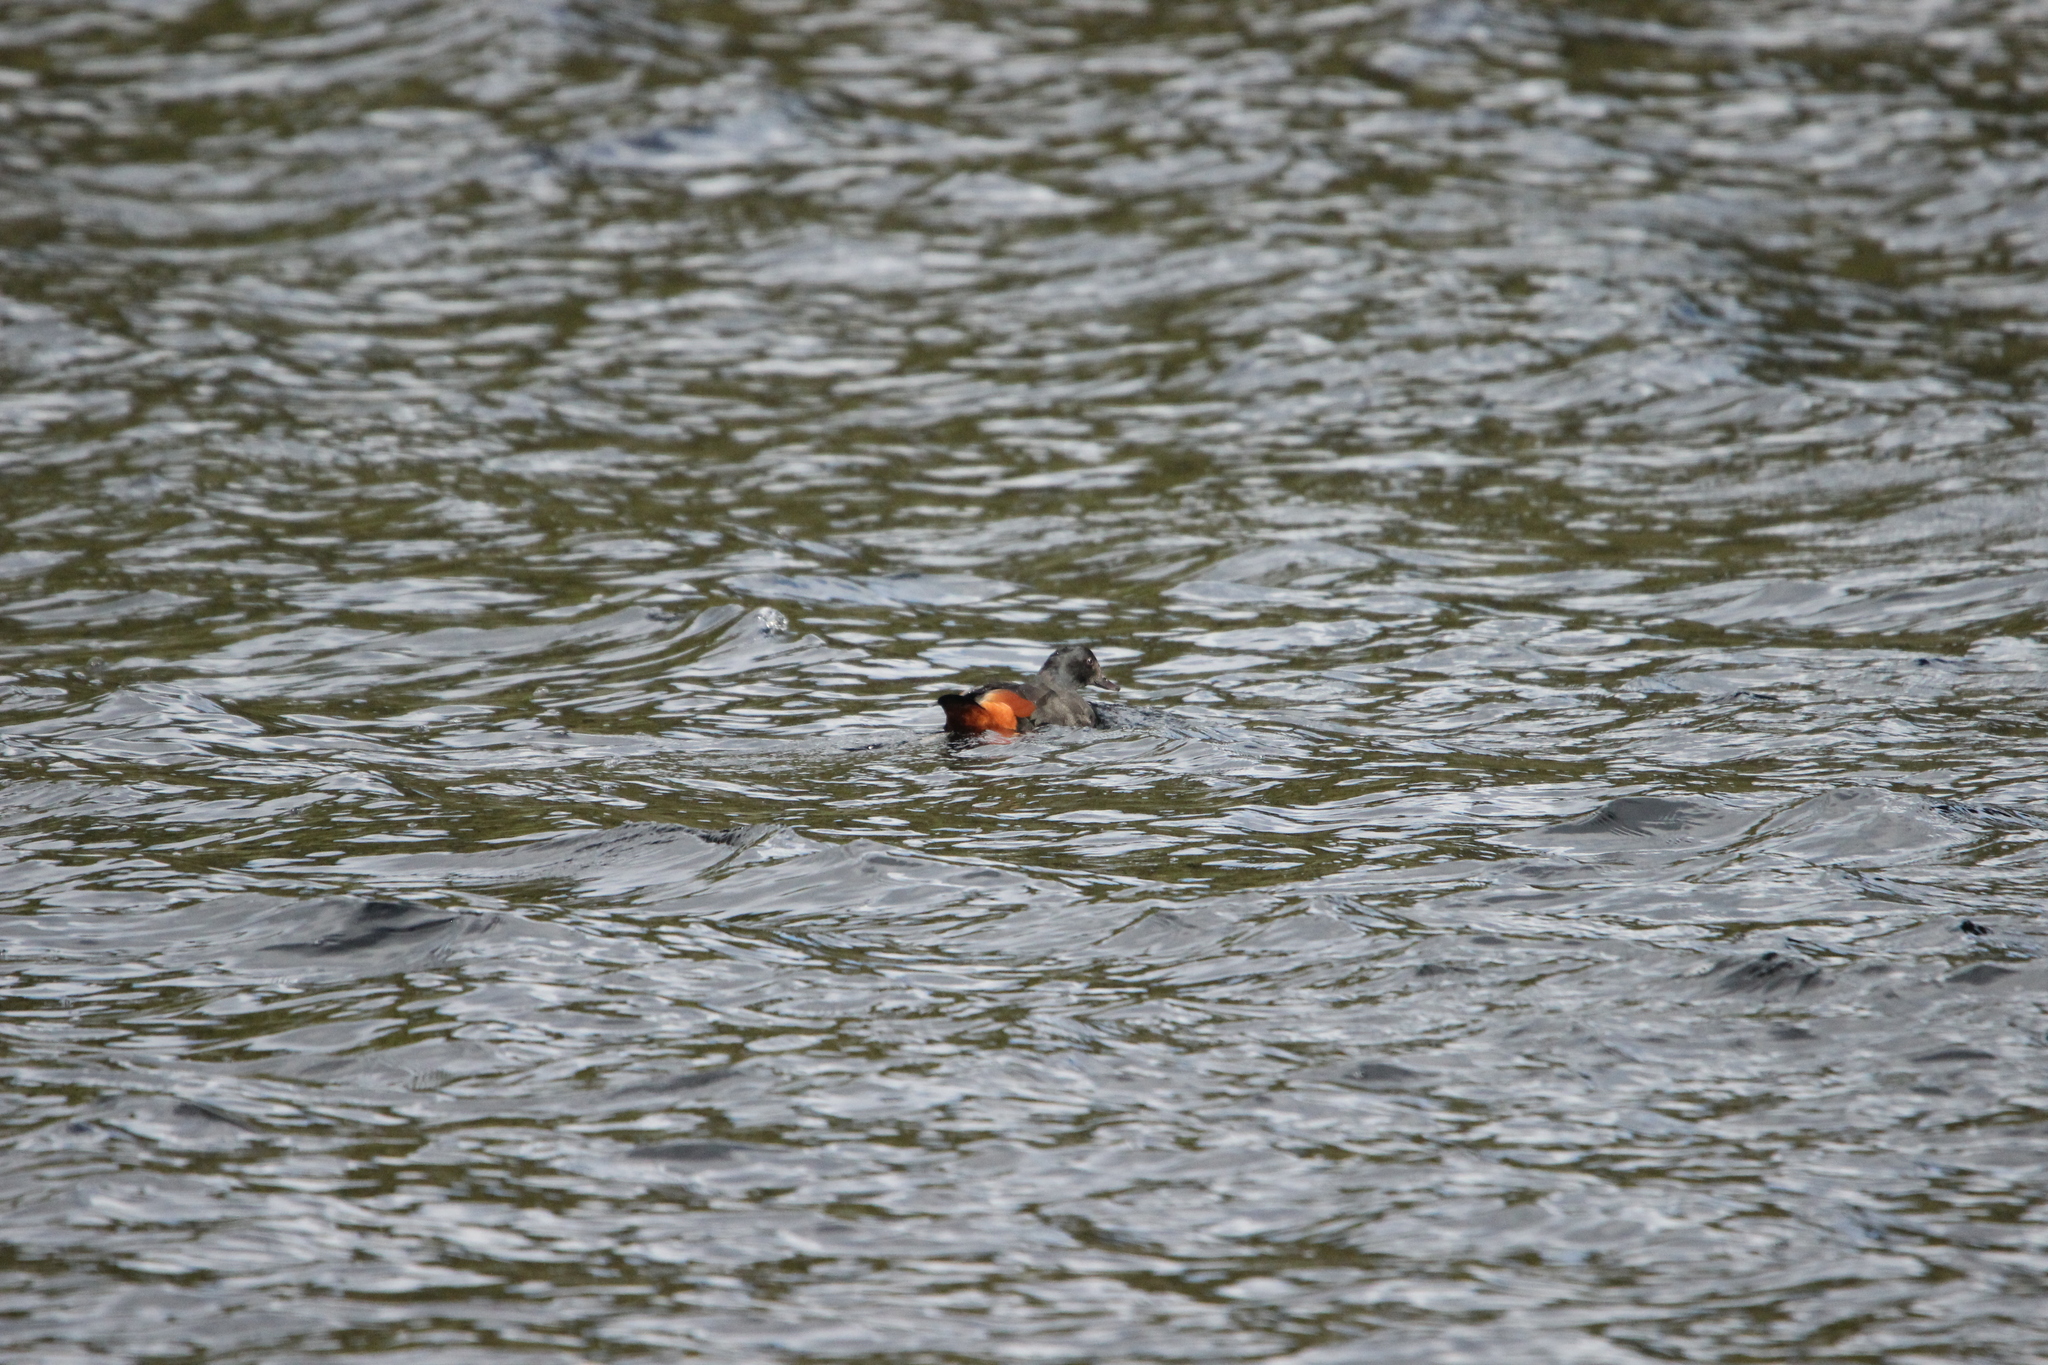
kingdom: Animalia
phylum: Chordata
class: Aves
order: Anseriformes
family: Anatidae
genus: Tadorna
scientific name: Tadorna variegata
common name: Paradise shelduck
